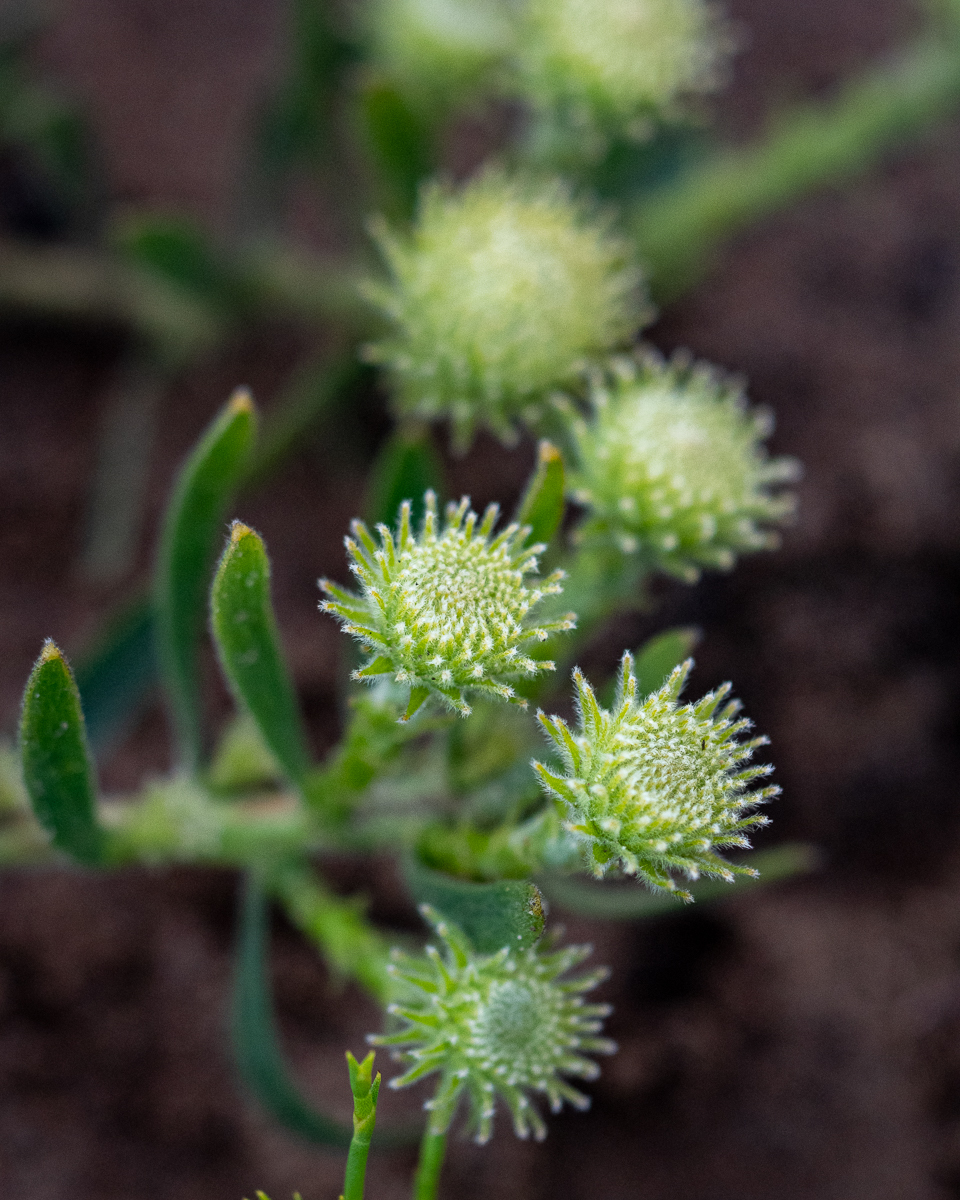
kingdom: Plantae
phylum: Tracheophyta
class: Magnoliopsida
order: Proteales
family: Proteaceae
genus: Leucospermum
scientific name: Leucospermum prostratum
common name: Yellow-trailing pincushion
